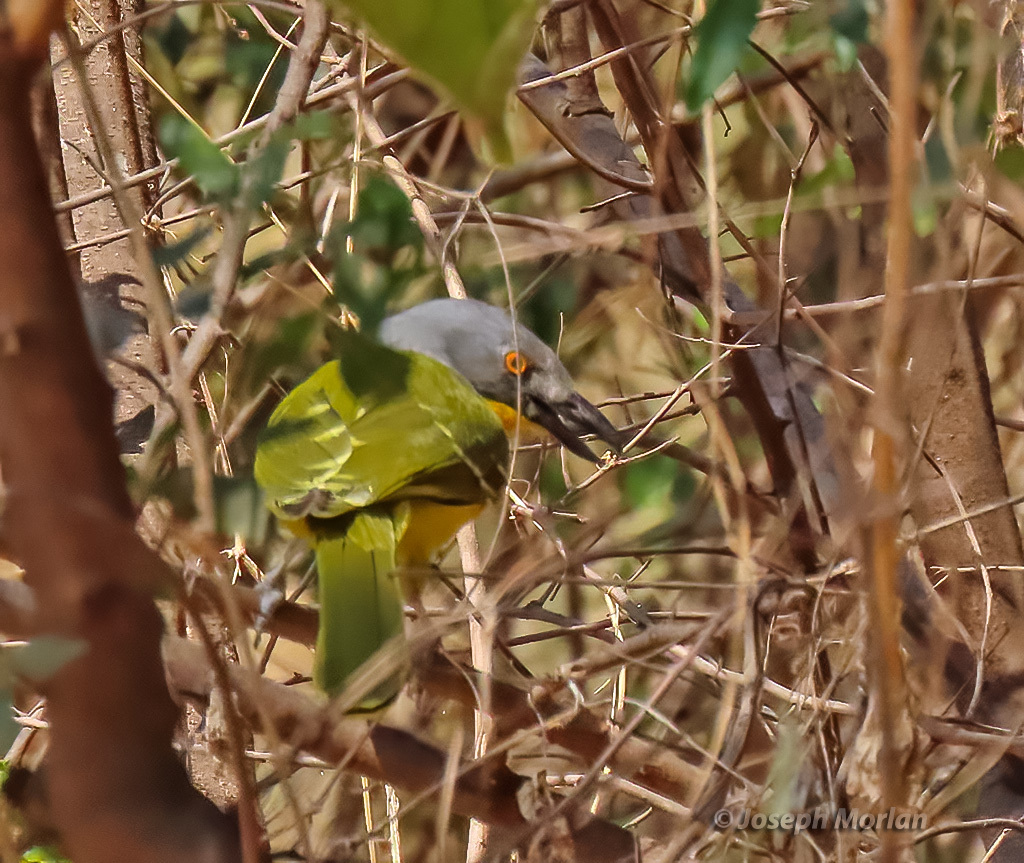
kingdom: Animalia
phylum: Chordata
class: Aves
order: Passeriformes
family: Malaconotidae
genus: Malaconotus
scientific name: Malaconotus blanchoti
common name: Grey-headed bushshrike
